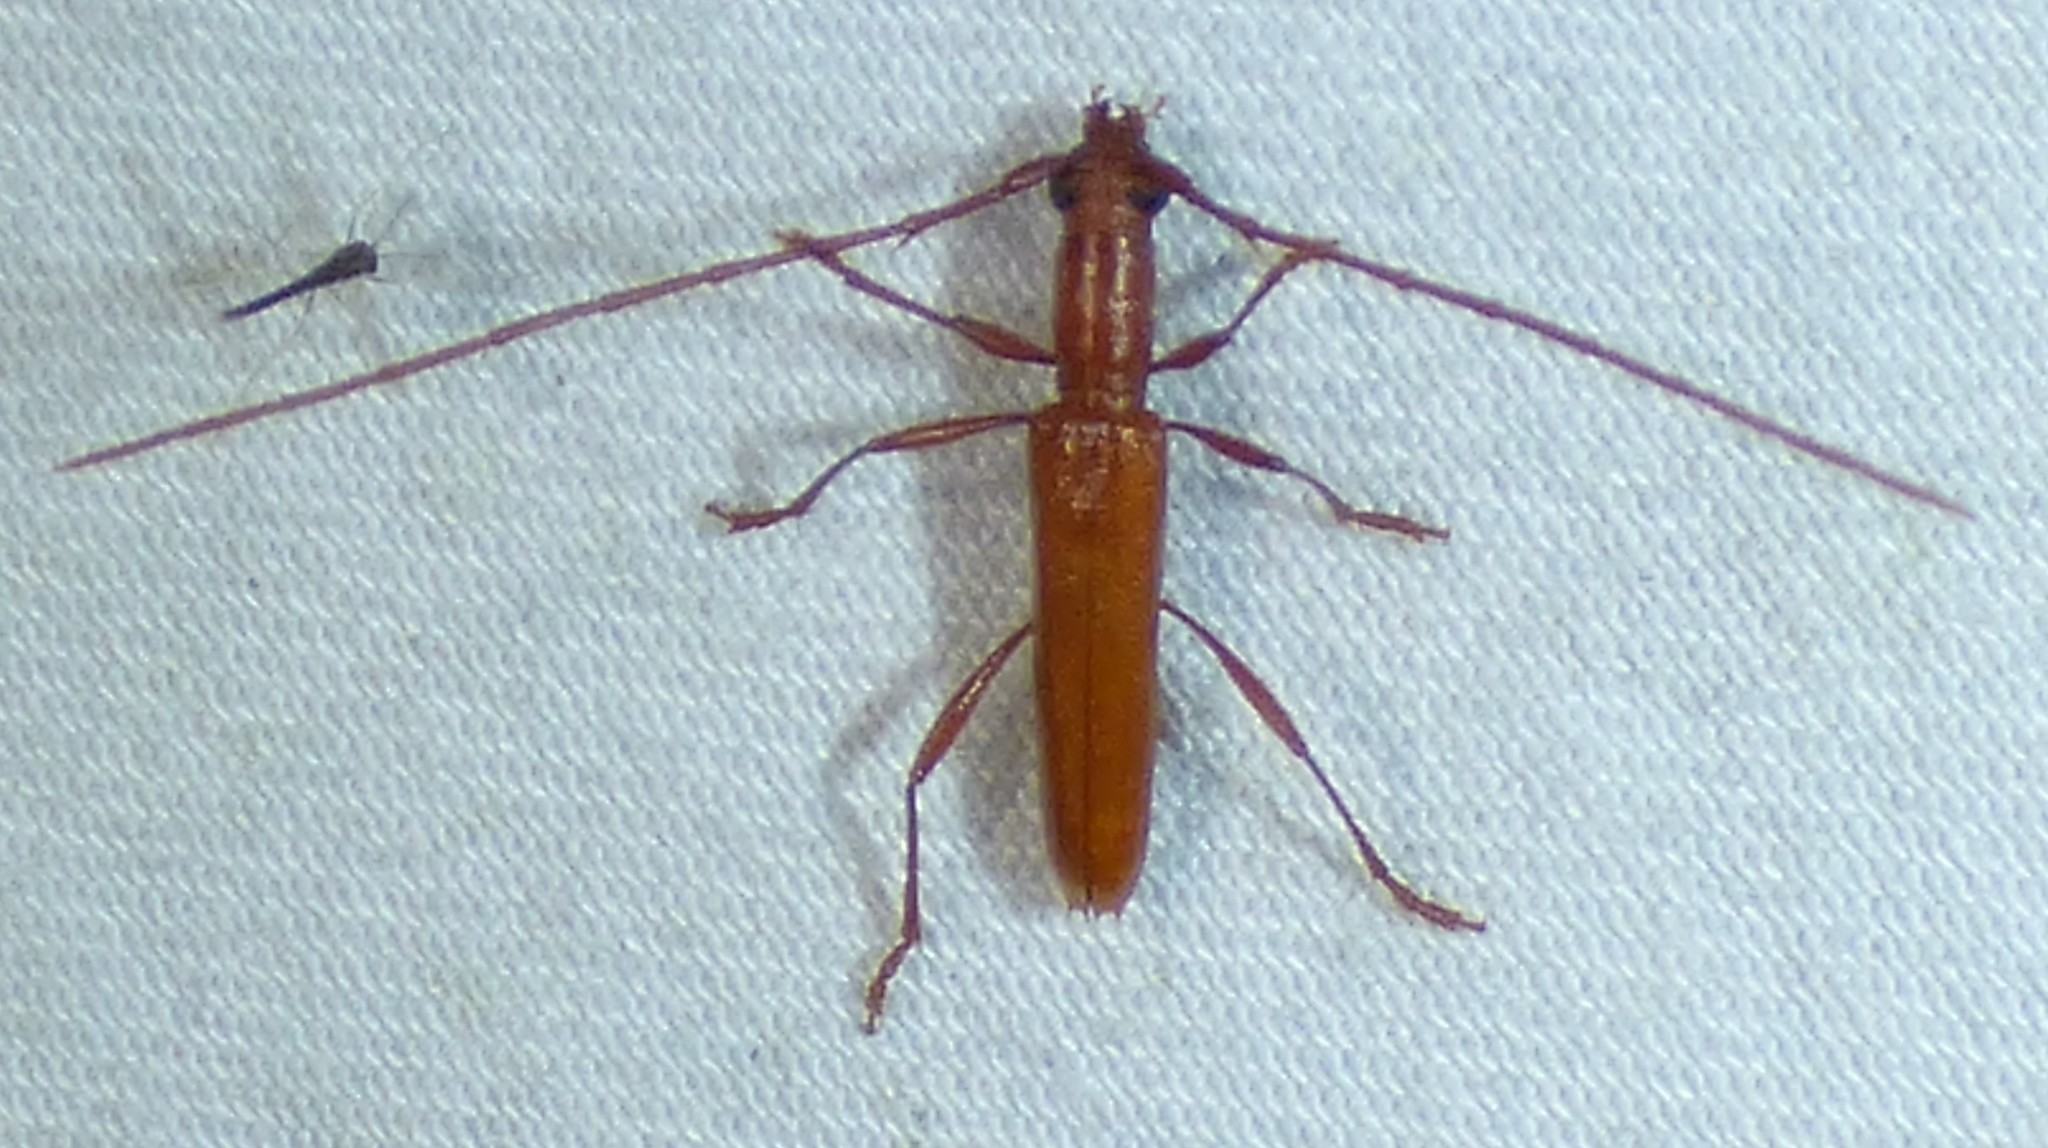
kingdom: Animalia
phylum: Arthropoda
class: Insecta
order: Coleoptera
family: Cerambycidae
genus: Psyrassa
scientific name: Psyrassa unicolor
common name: Branch pruner
